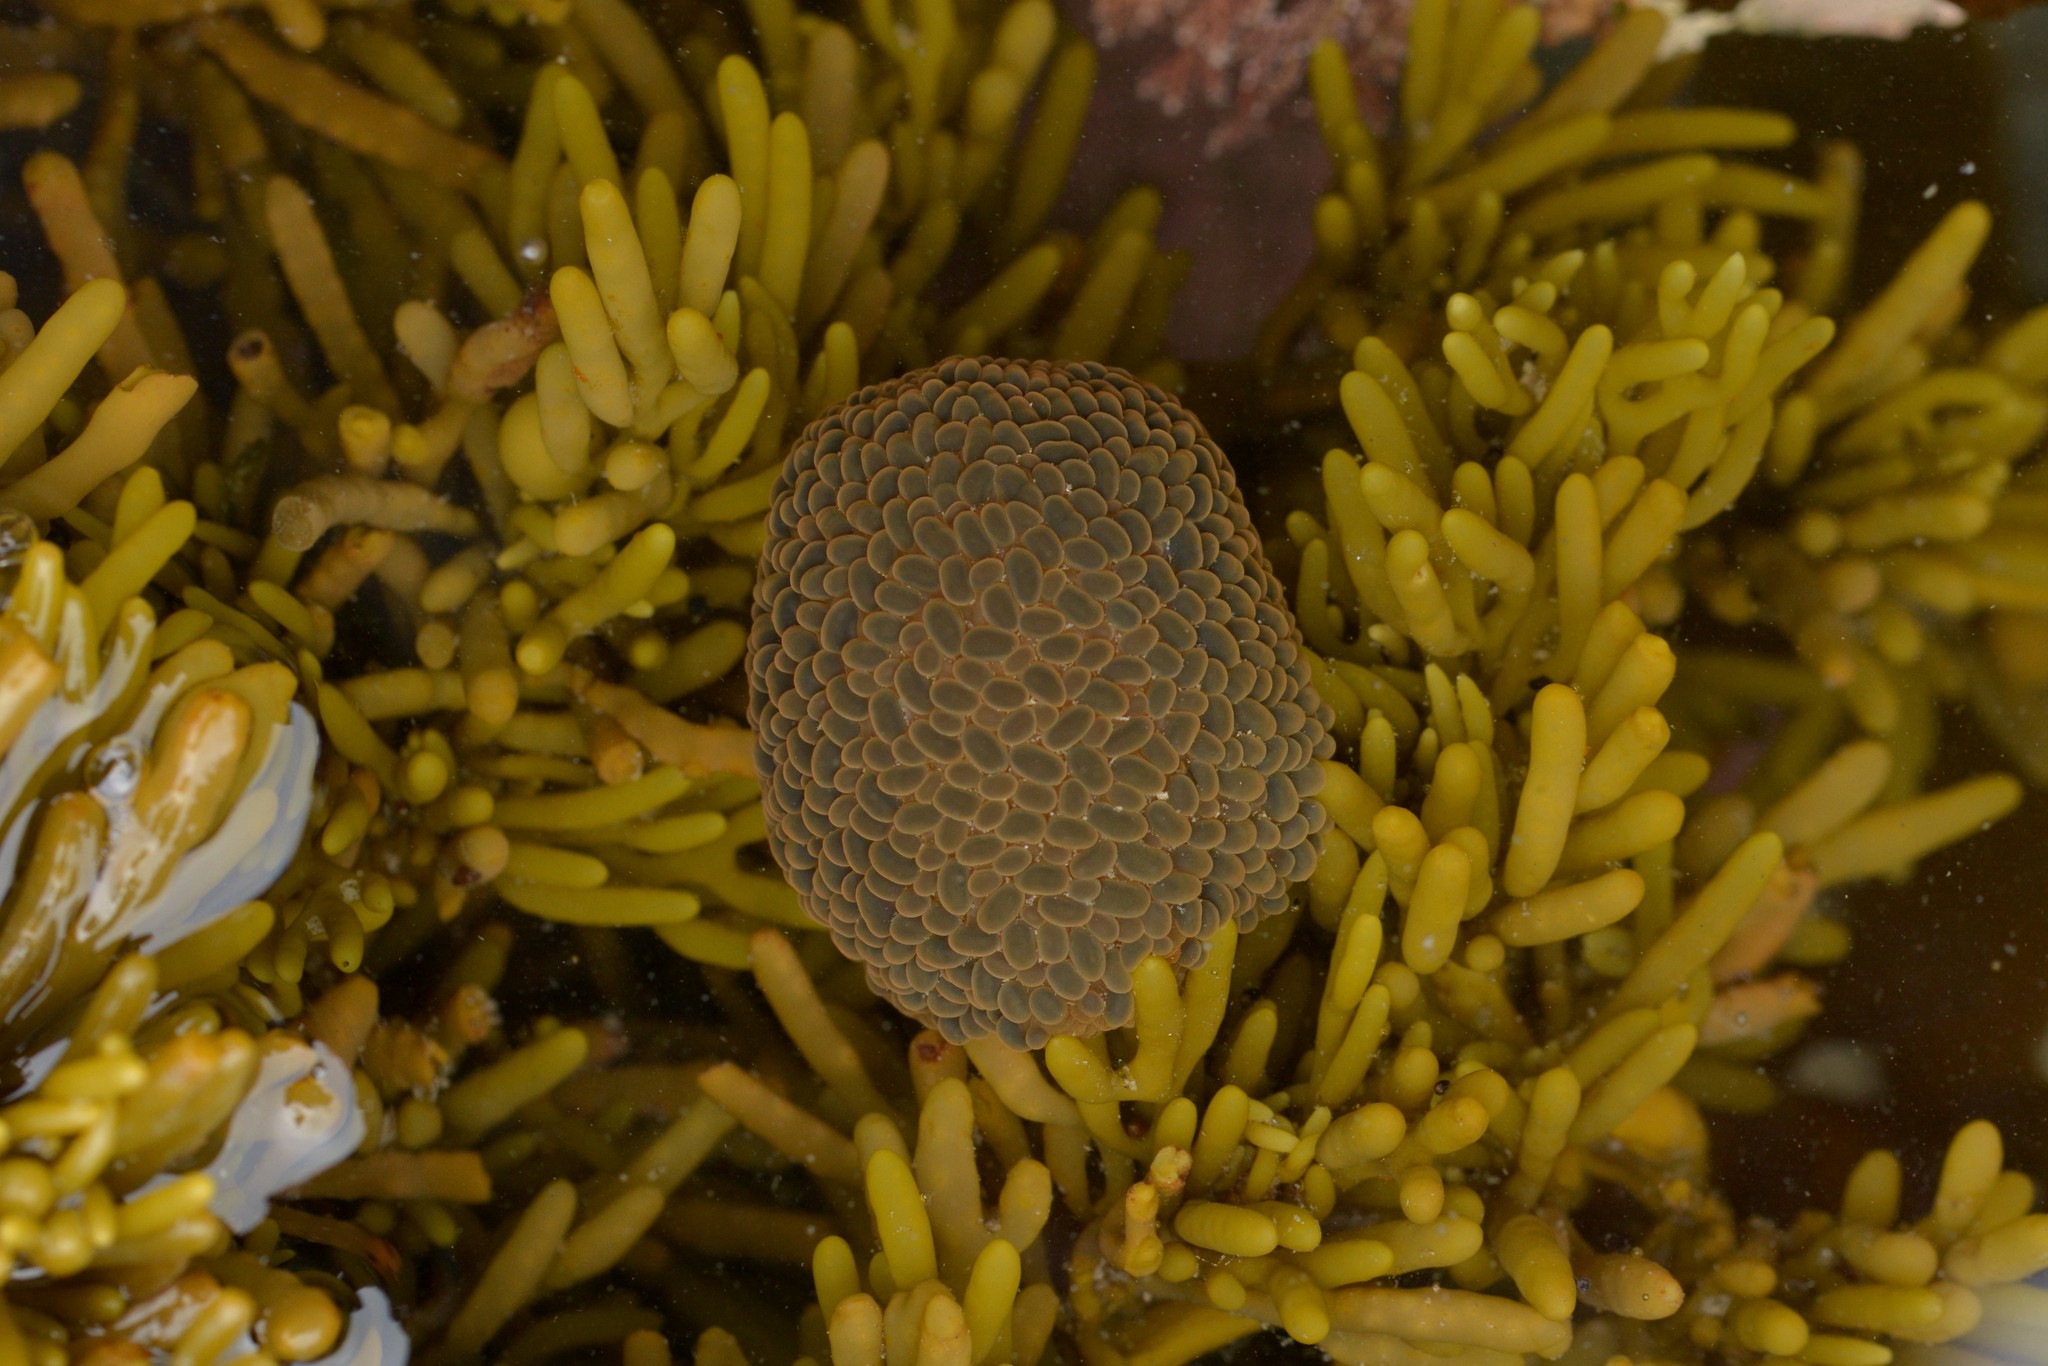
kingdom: Animalia
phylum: Cnidaria
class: Anthozoa
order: Actiniaria
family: Actiniidae
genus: Phlyctenactis
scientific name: Phlyctenactis tuberculosa
